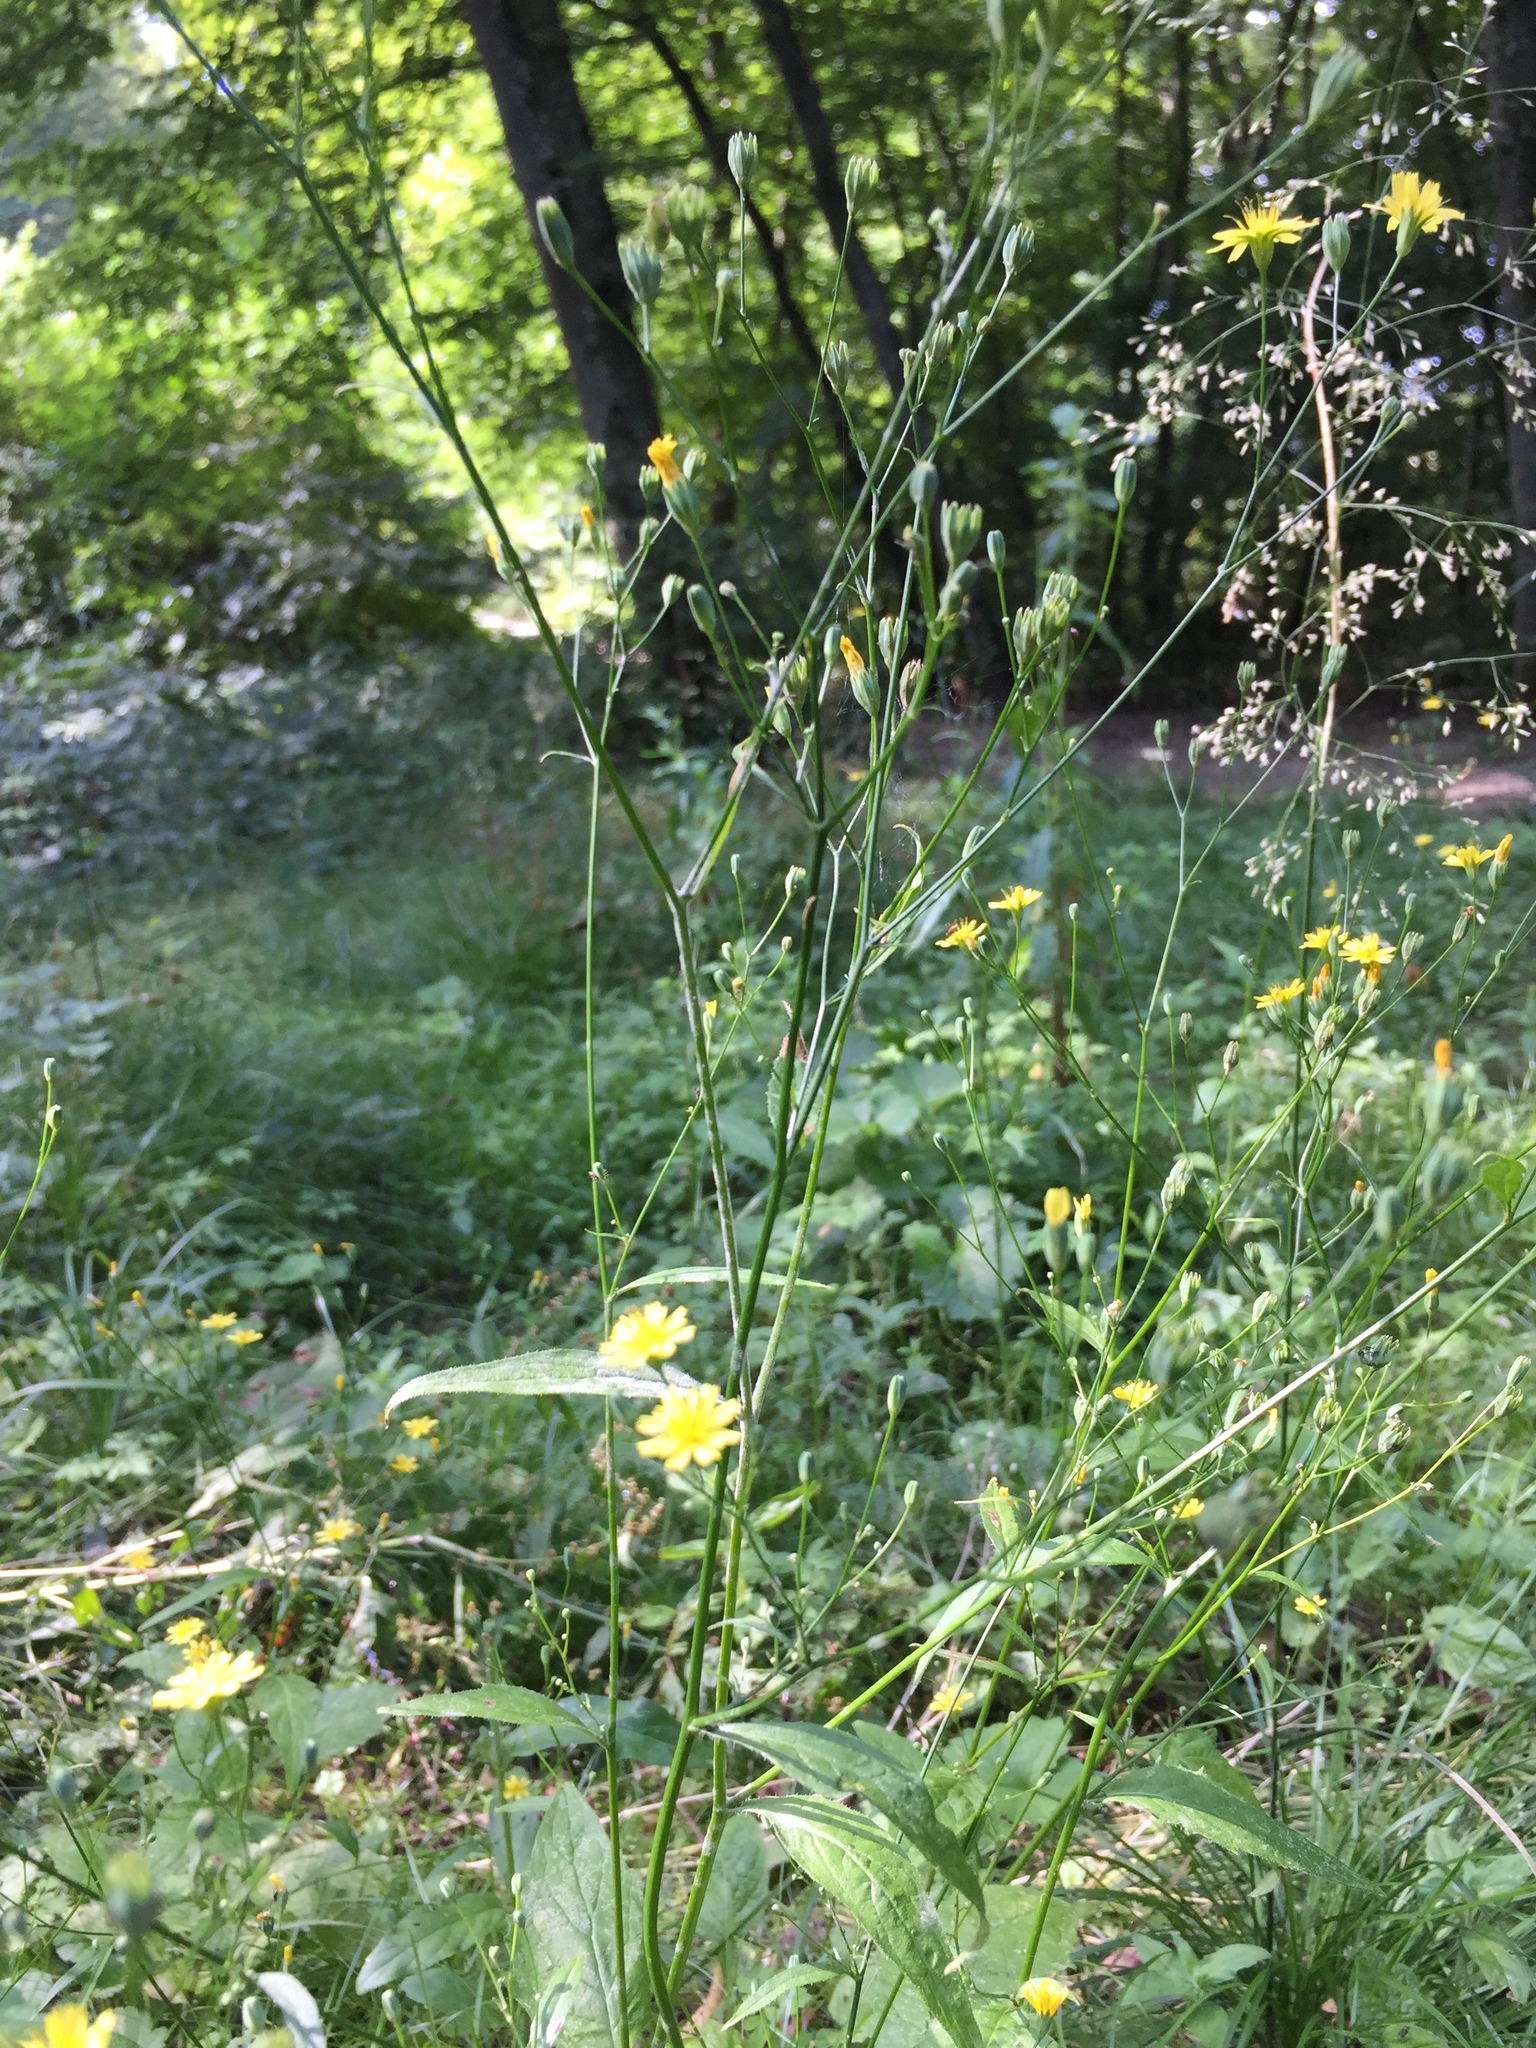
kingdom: Plantae
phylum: Tracheophyta
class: Magnoliopsida
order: Asterales
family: Asteraceae
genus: Lapsana
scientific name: Lapsana communis
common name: Nipplewort
